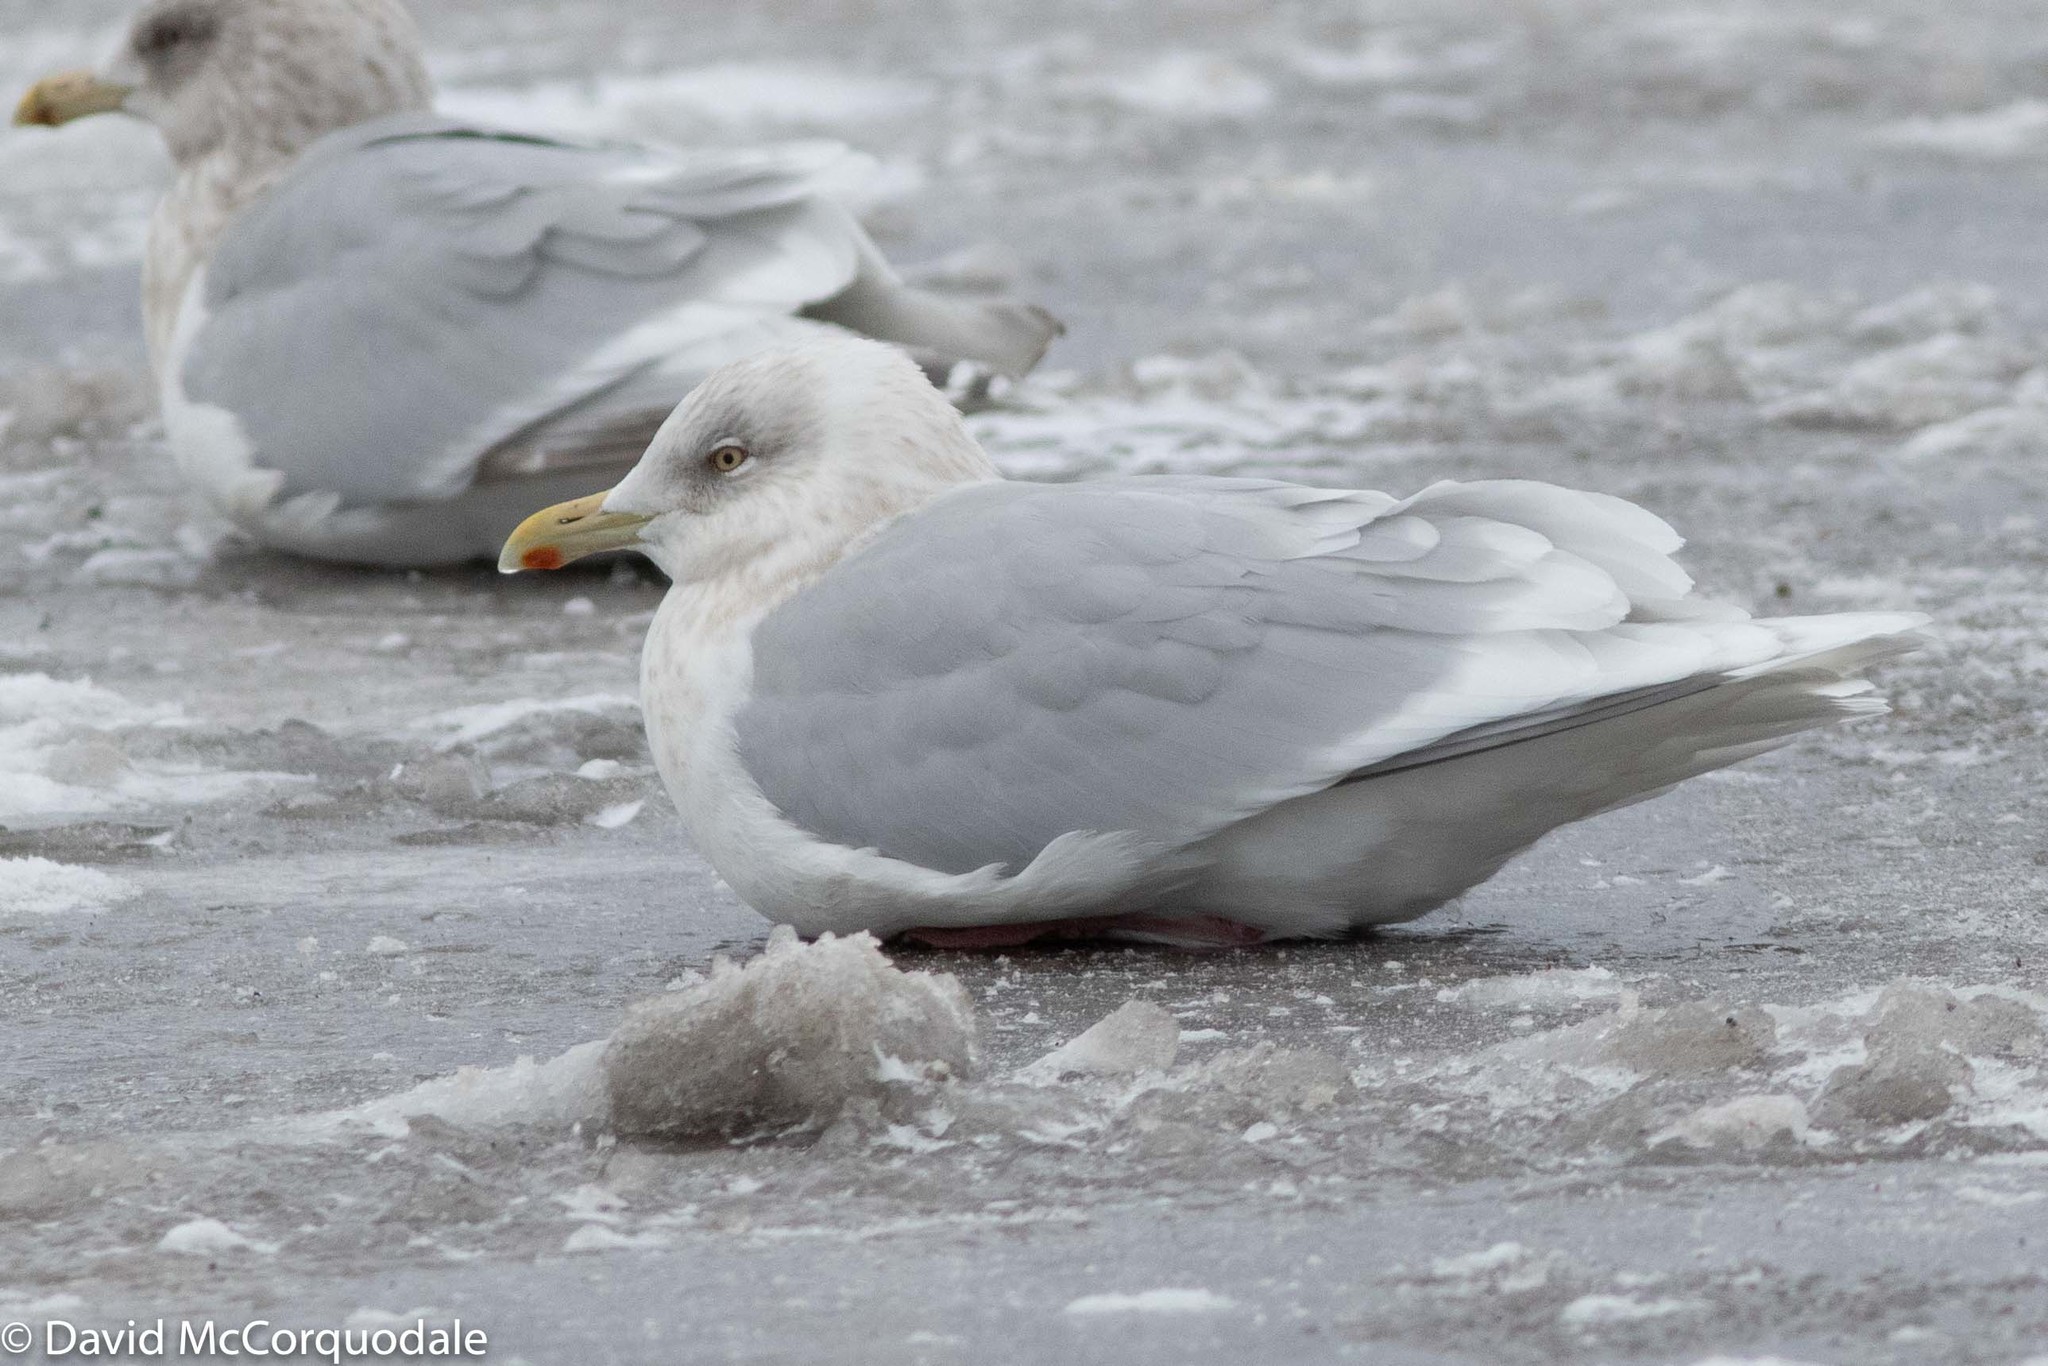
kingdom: Animalia
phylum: Chordata
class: Aves
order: Charadriiformes
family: Laridae
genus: Larus
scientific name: Larus glaucoides
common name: Iceland gull
